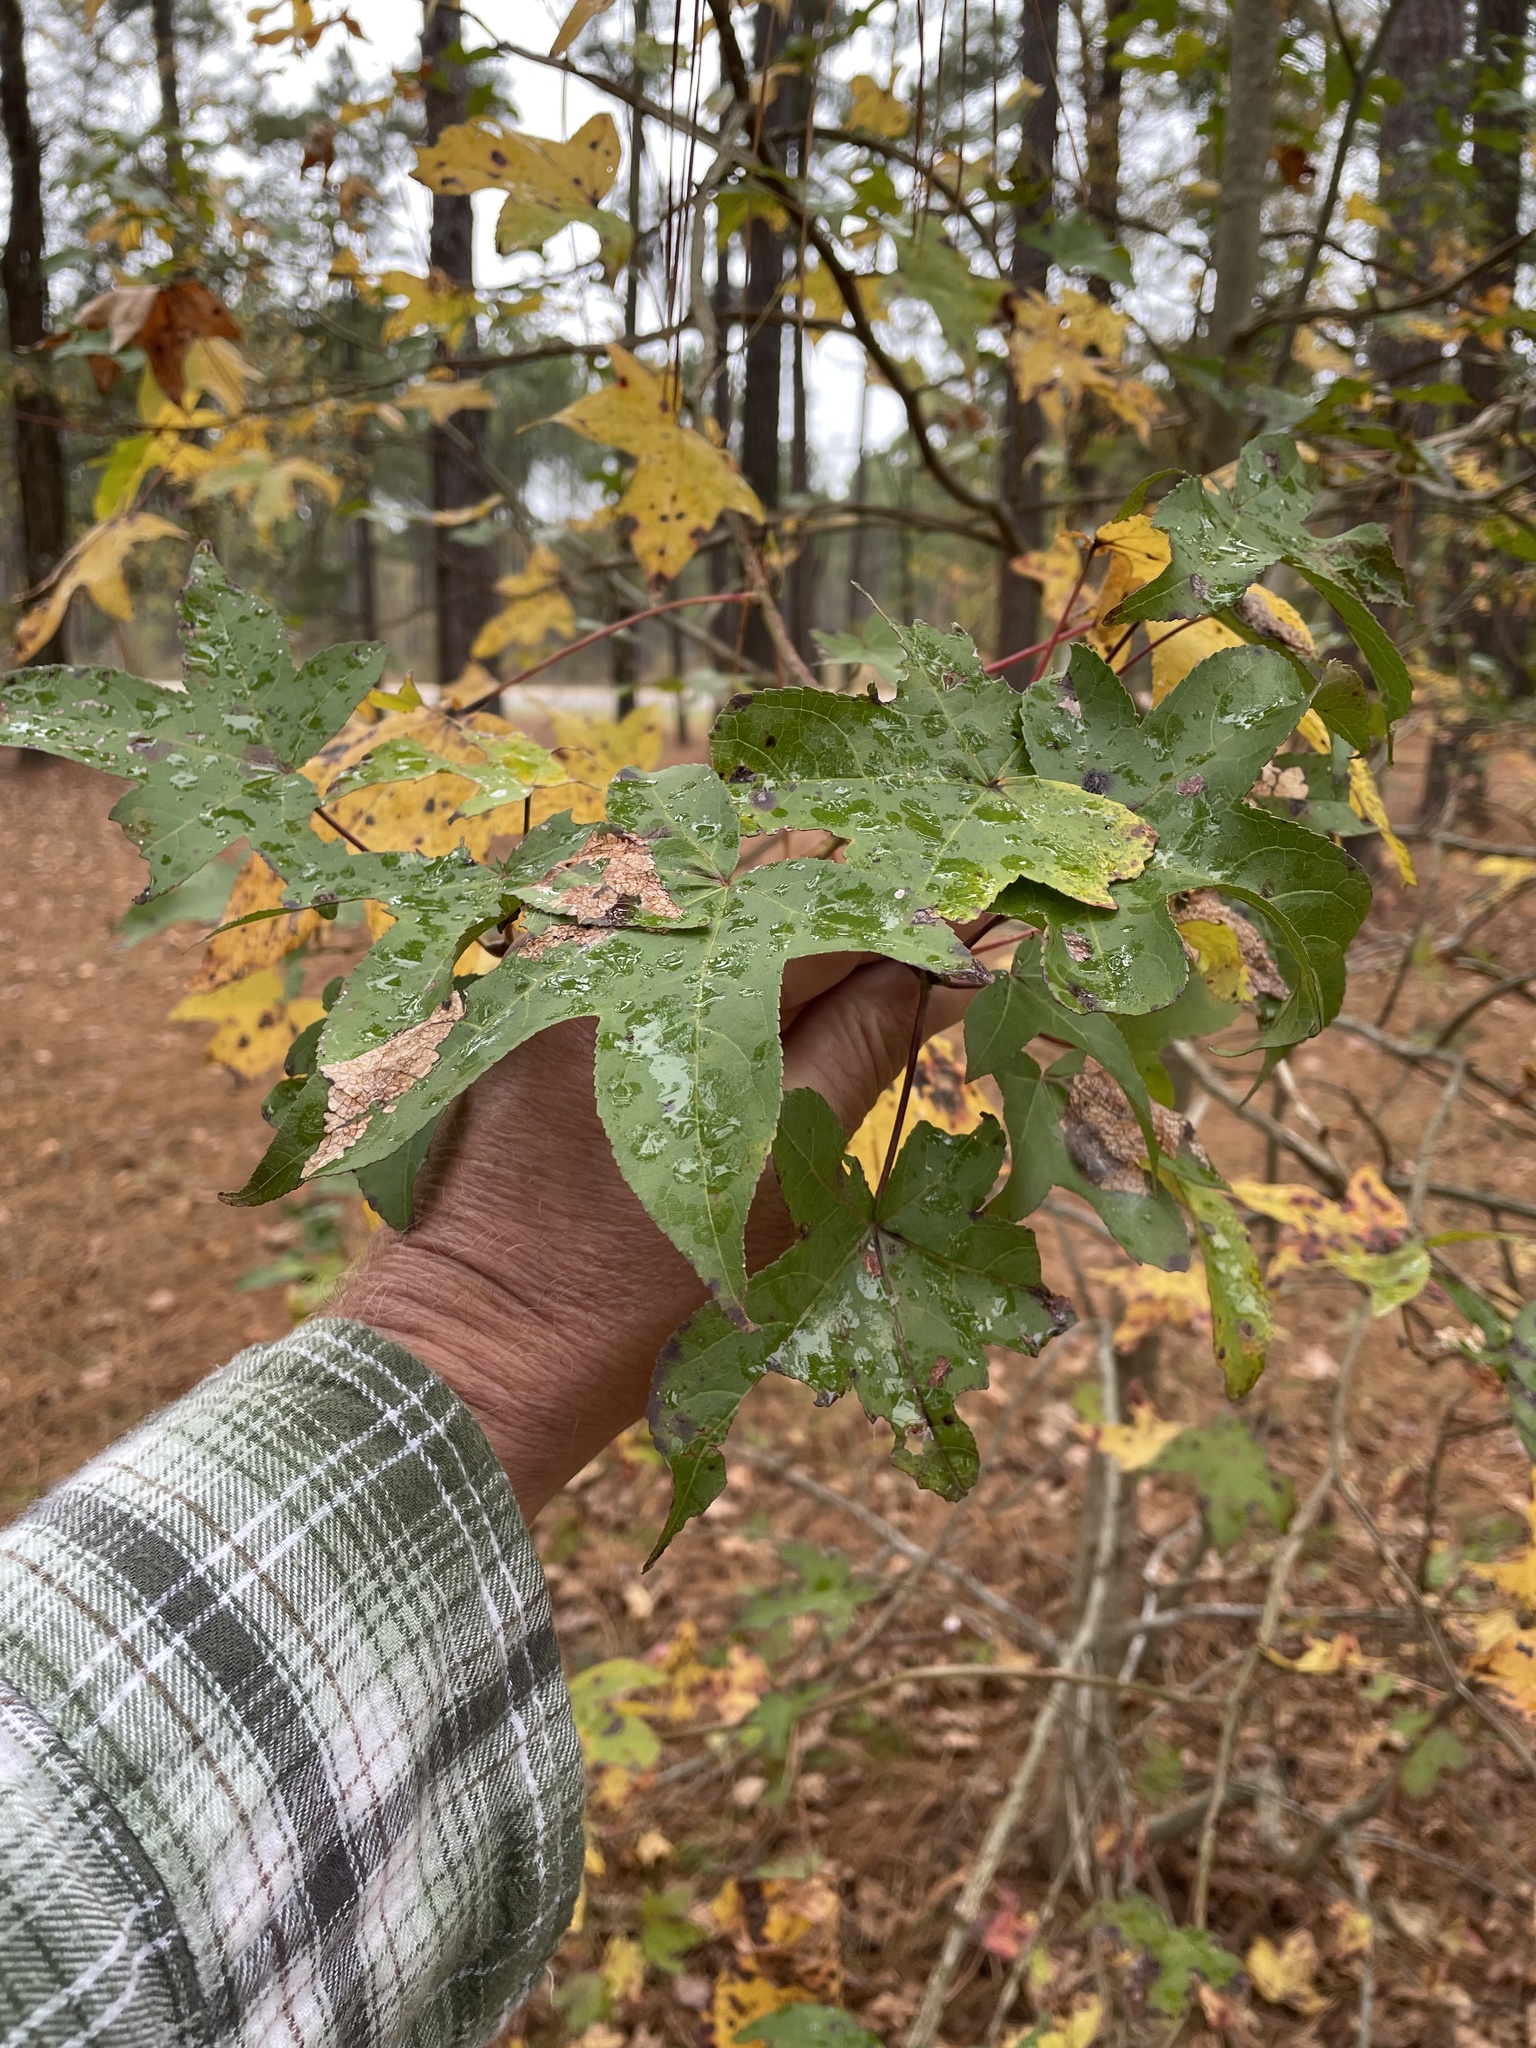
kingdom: Plantae
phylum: Tracheophyta
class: Magnoliopsida
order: Saxifragales
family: Altingiaceae
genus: Liquidambar
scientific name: Liquidambar styraciflua
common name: Sweet gum
